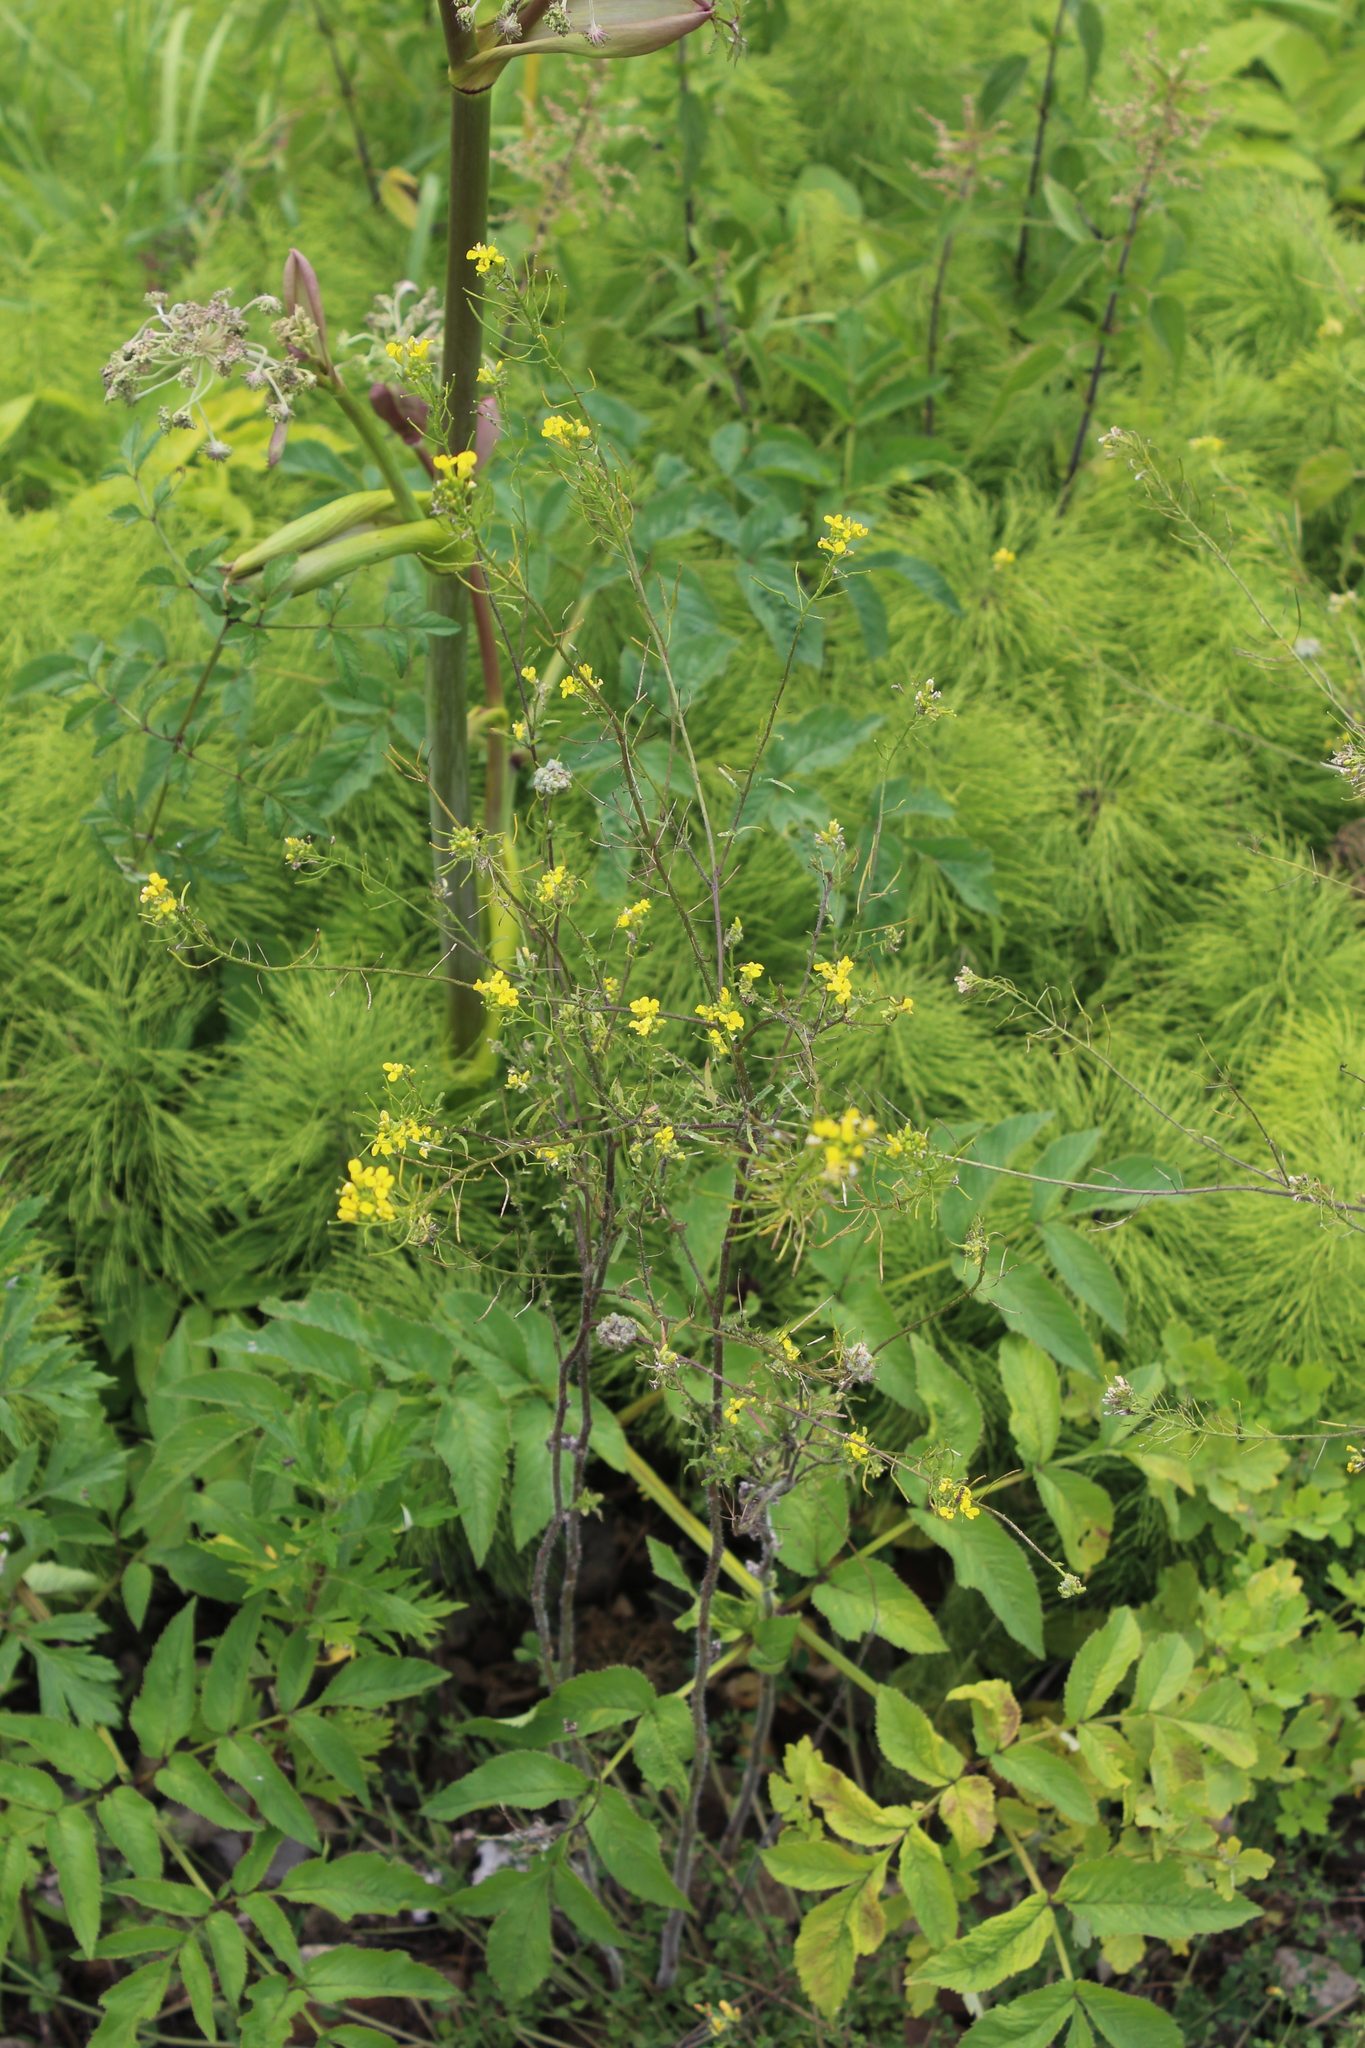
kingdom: Plantae
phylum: Tracheophyta
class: Magnoliopsida
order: Brassicales
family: Brassicaceae
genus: Sisymbrium
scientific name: Sisymbrium loeselii
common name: False london-rocket
